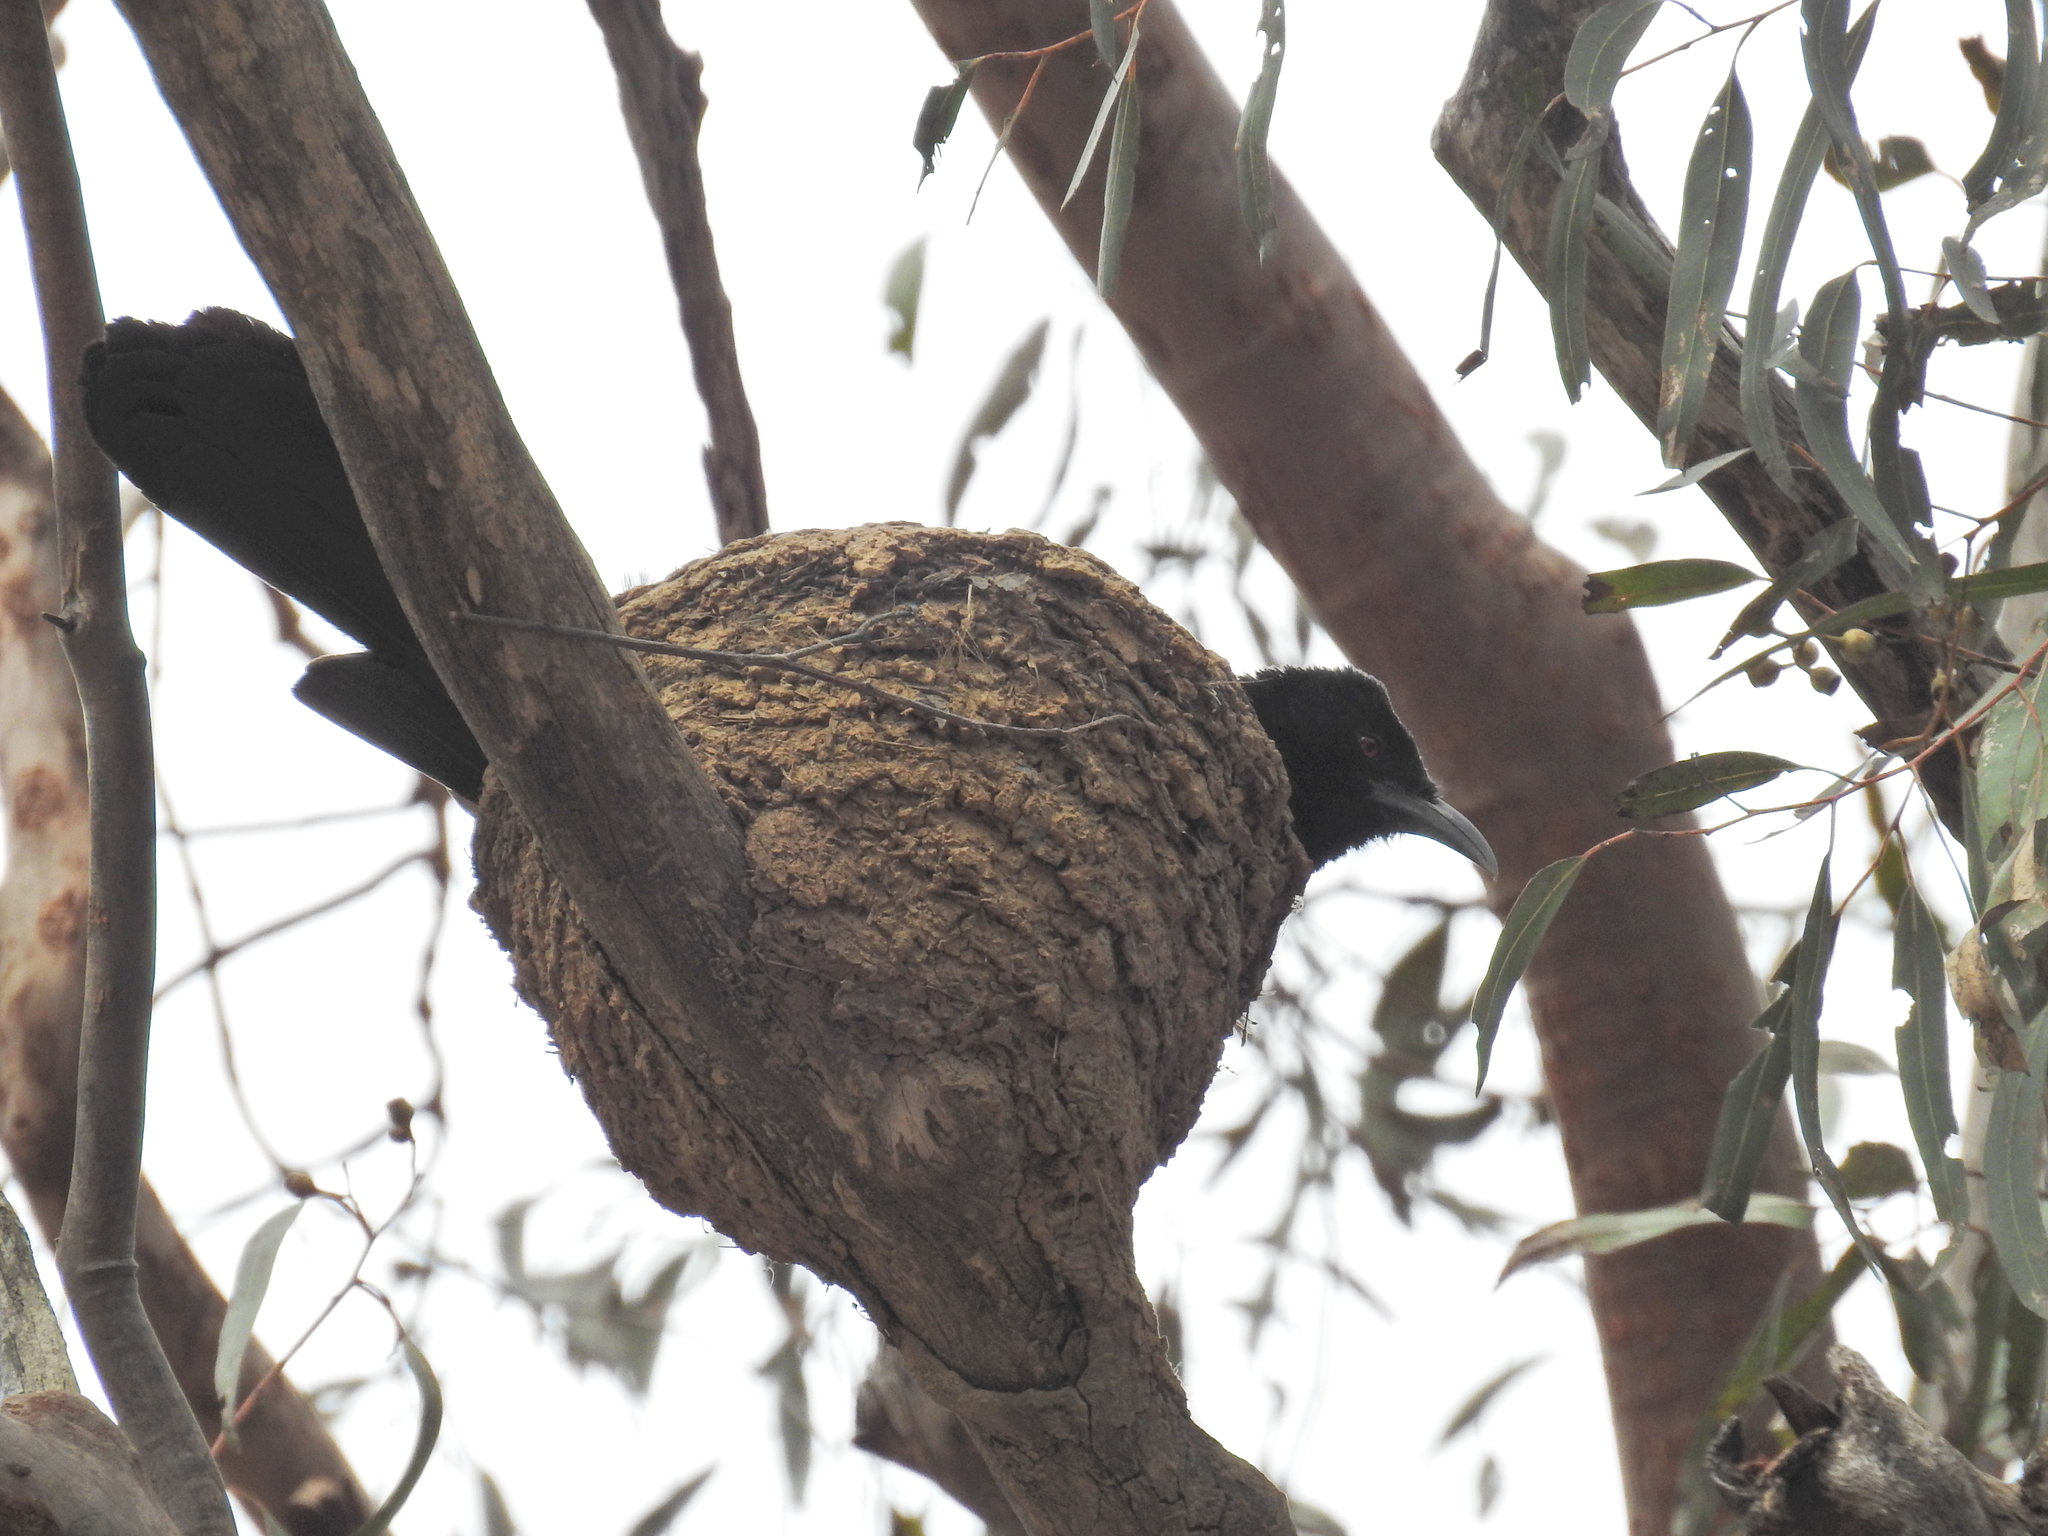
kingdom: Animalia
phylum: Chordata
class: Aves
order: Passeriformes
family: Corcoracidae
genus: Corcorax
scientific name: Corcorax melanoramphos
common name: White-winged chough
